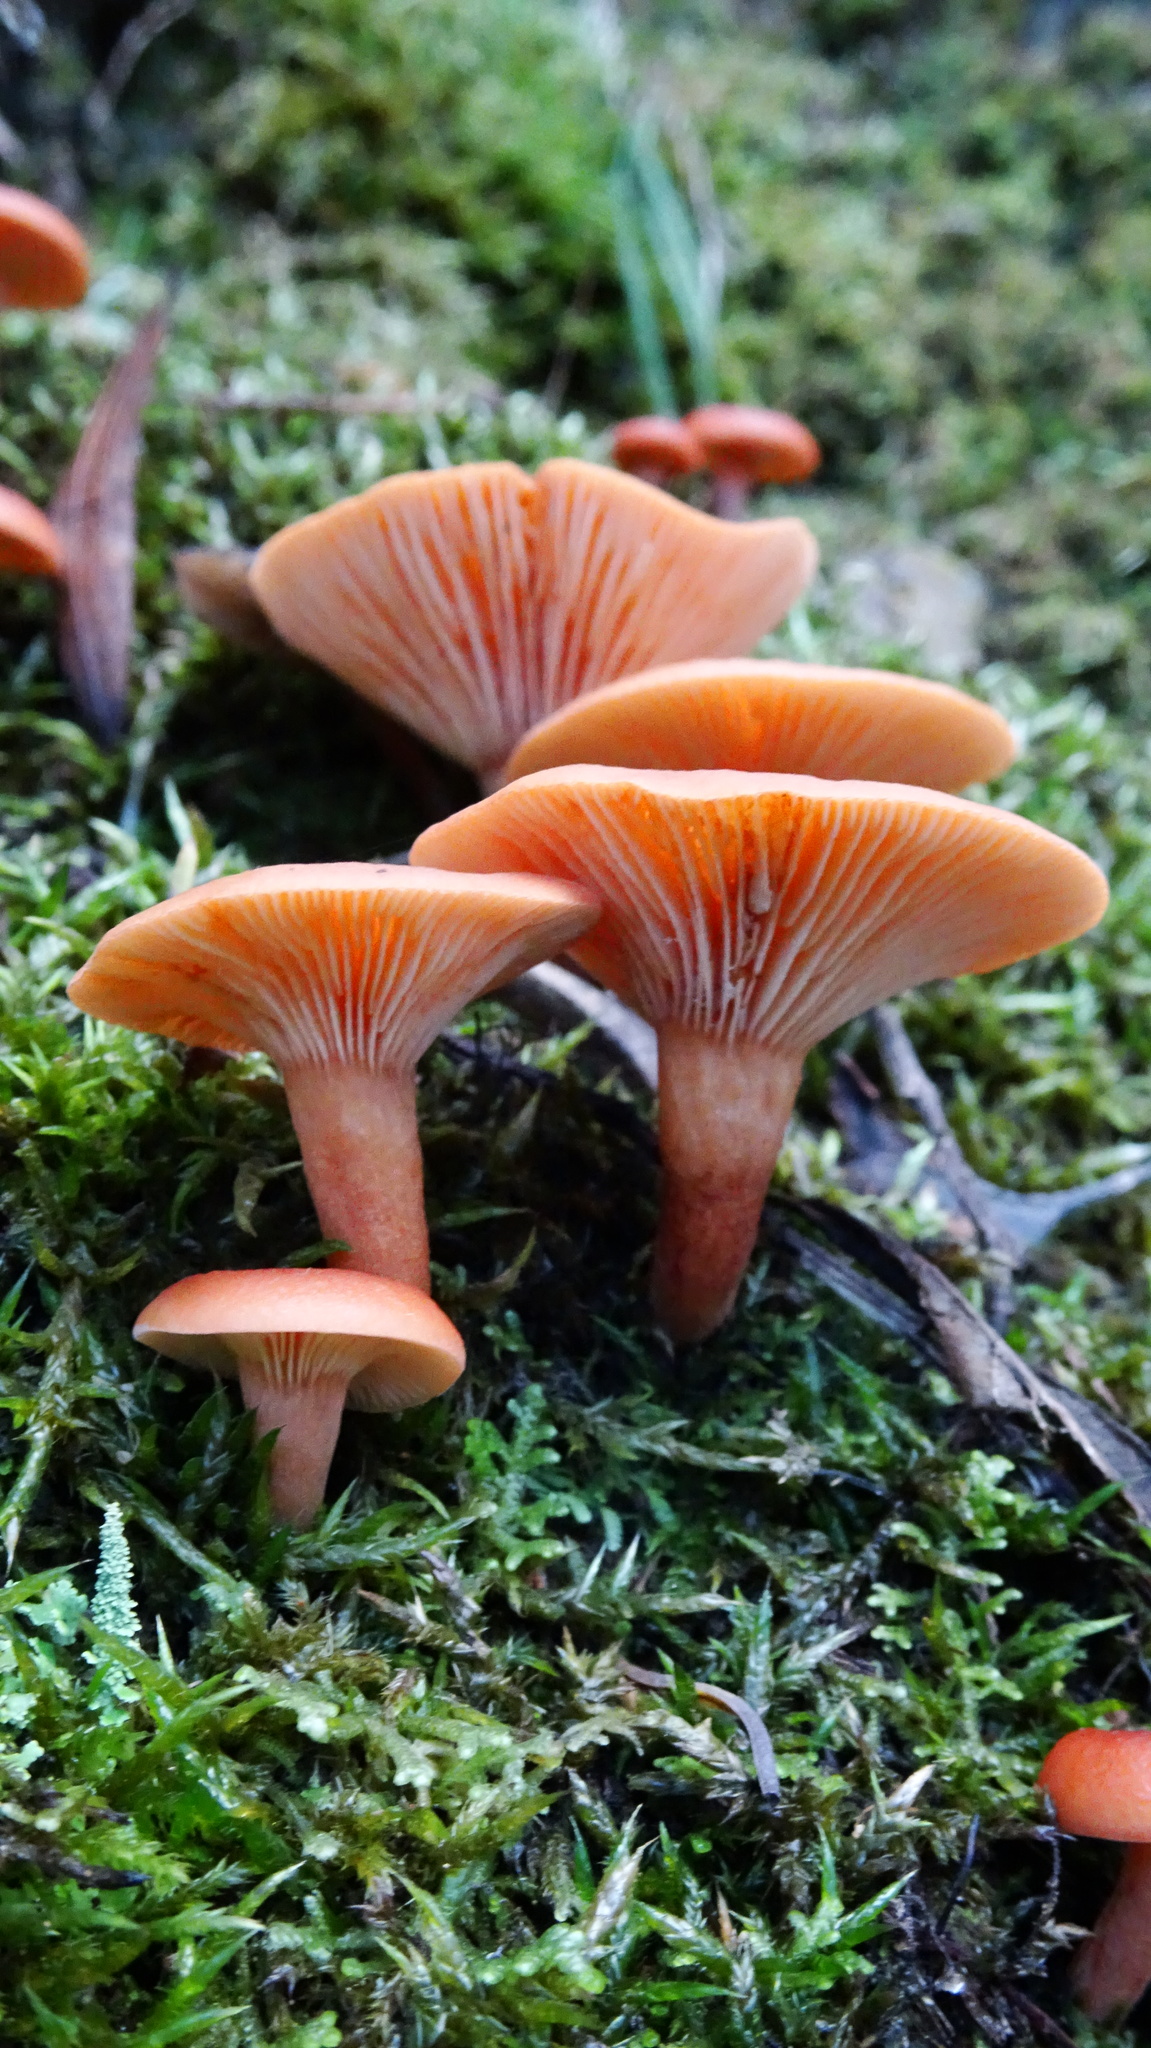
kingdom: Fungi
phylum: Basidiomycota
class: Agaricomycetes
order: Russulales
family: Russulaceae
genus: Lactarius
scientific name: Lactarius eucalypti
